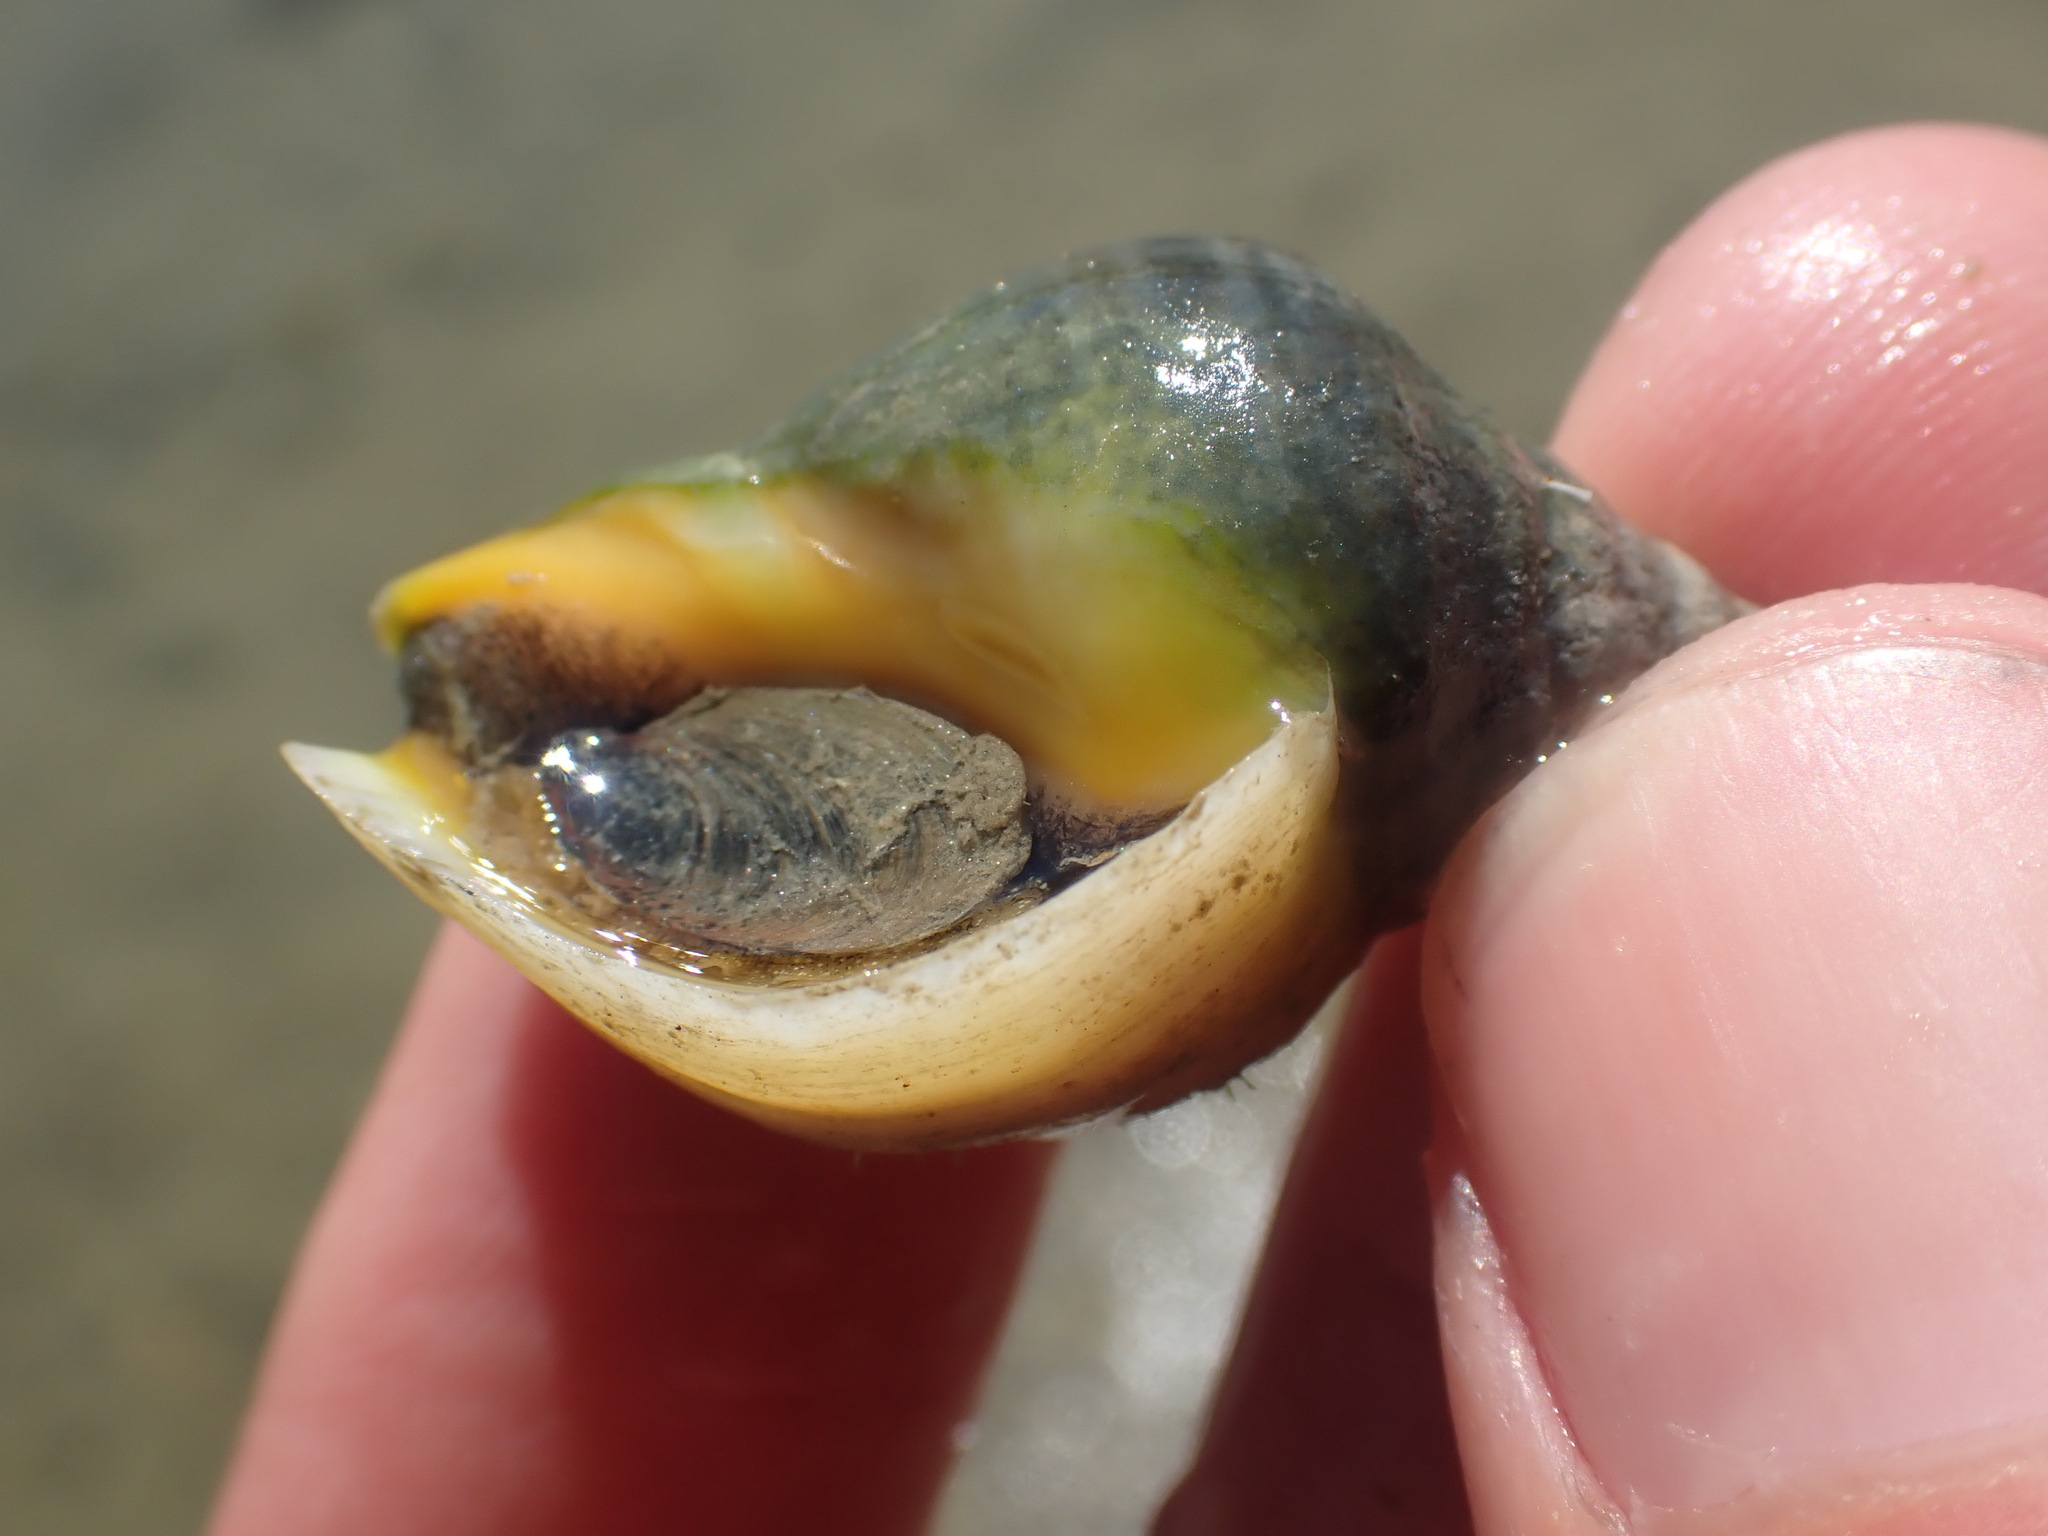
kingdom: Animalia
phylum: Mollusca
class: Gastropoda
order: Neogastropoda
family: Cominellidae
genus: Cominella
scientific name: Cominella adspersa
